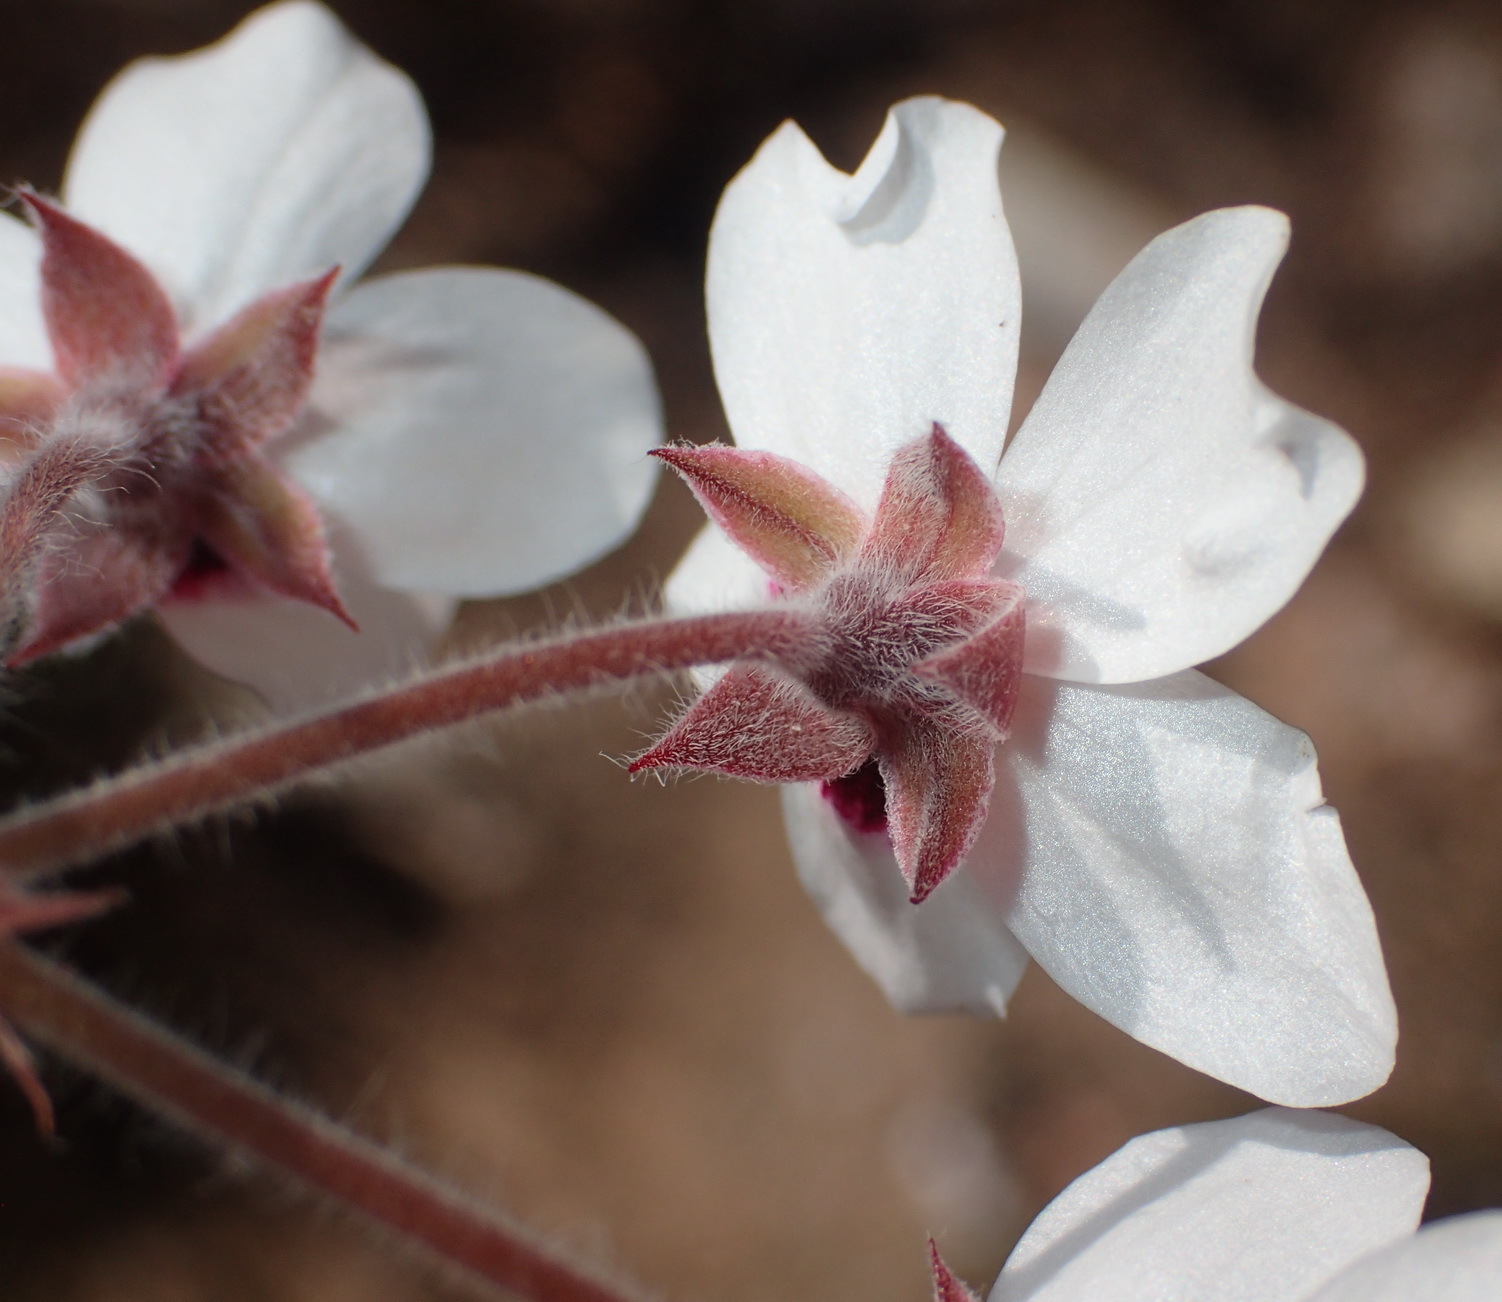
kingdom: Plantae
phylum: Tracheophyta
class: Magnoliopsida
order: Geraniales
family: Geraniaceae
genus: Pelargonium
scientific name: Pelargonium tricolor
